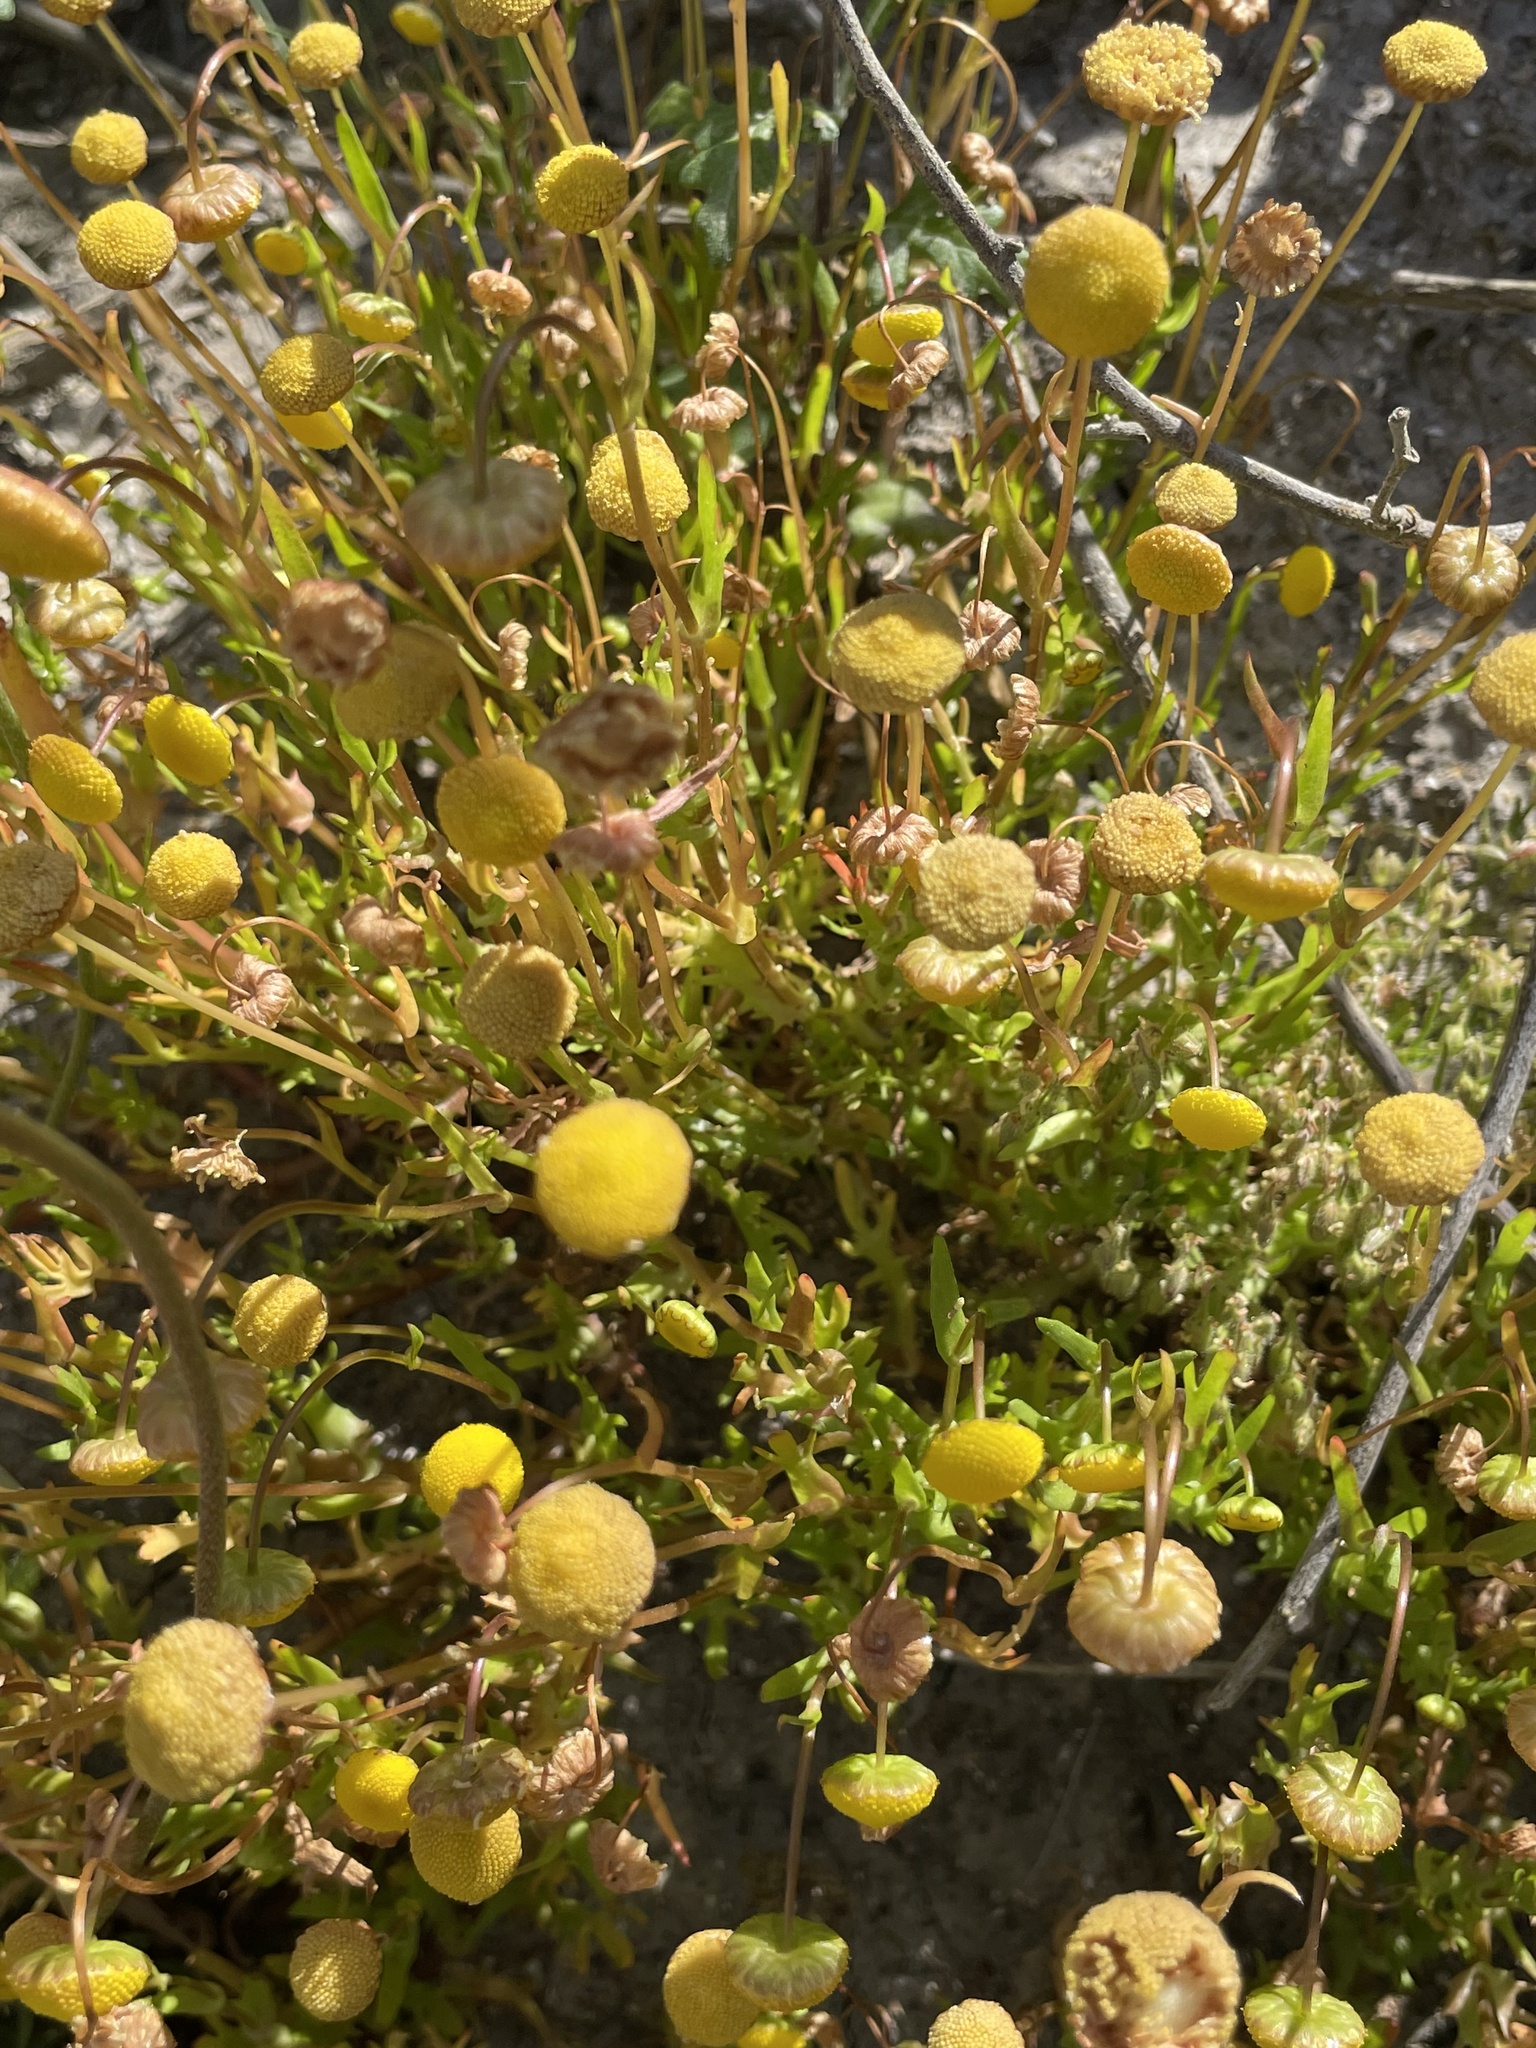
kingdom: Plantae
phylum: Tracheophyta
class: Magnoliopsida
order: Asterales
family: Asteraceae
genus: Cotula
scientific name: Cotula coronopifolia
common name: Buttonweed
